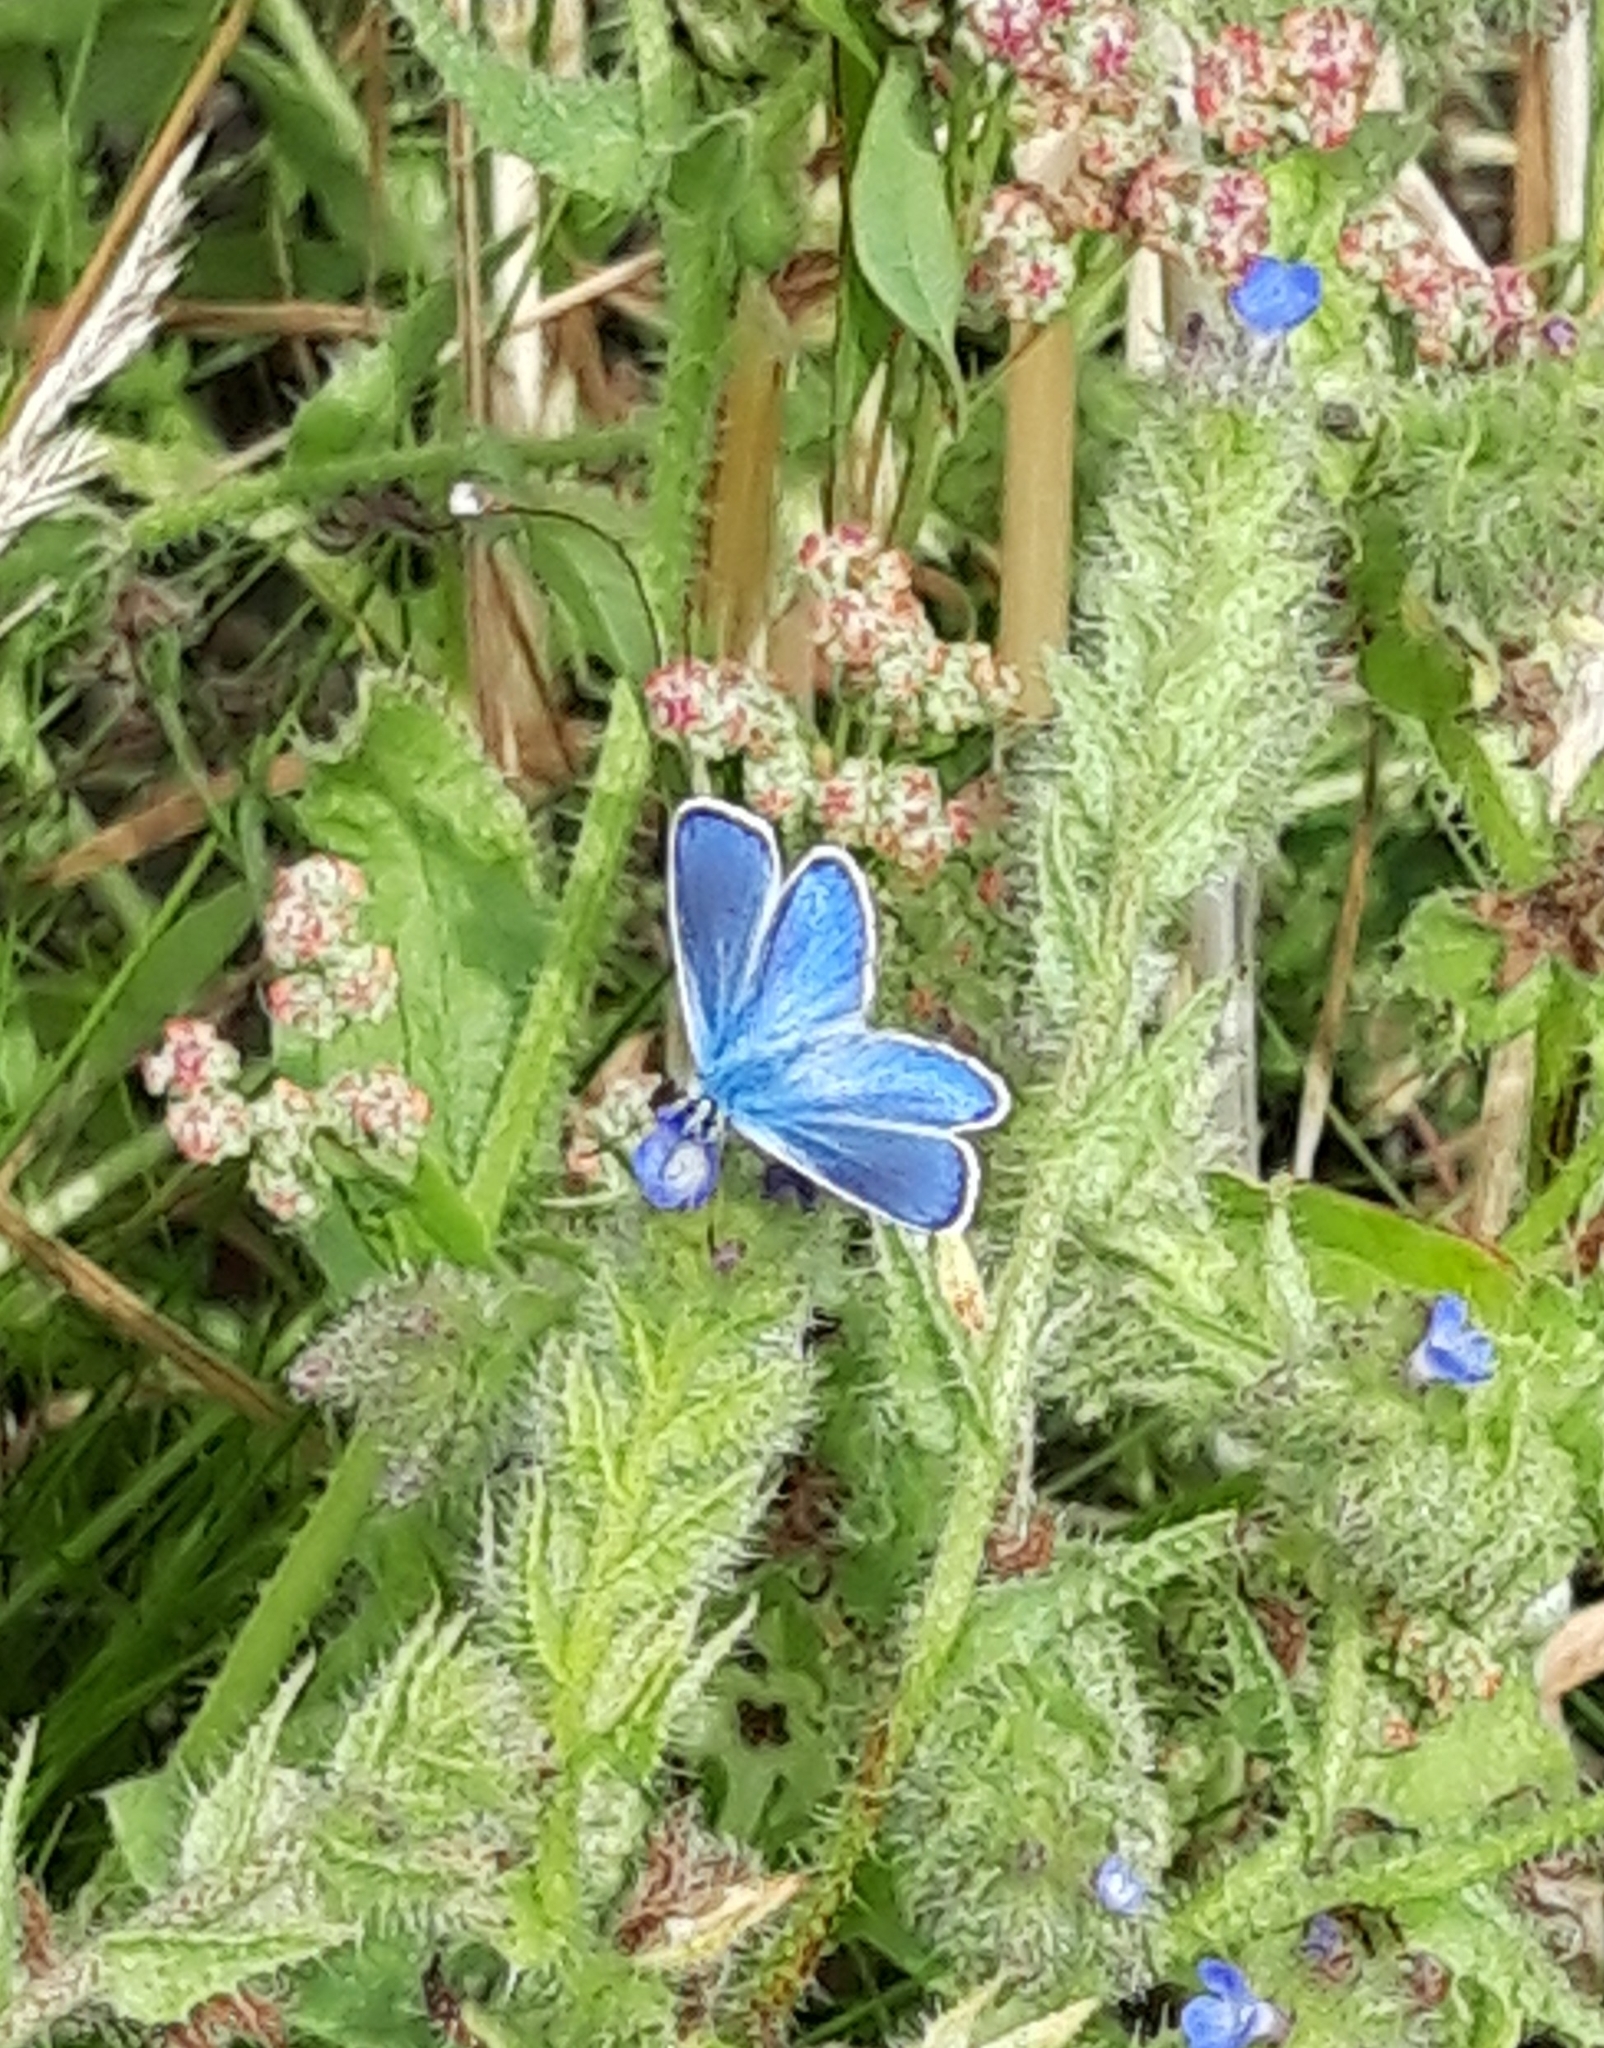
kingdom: Animalia
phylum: Arthropoda
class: Insecta
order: Lepidoptera
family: Lycaenidae
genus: Polyommatus
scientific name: Polyommatus icarus
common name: Common blue
